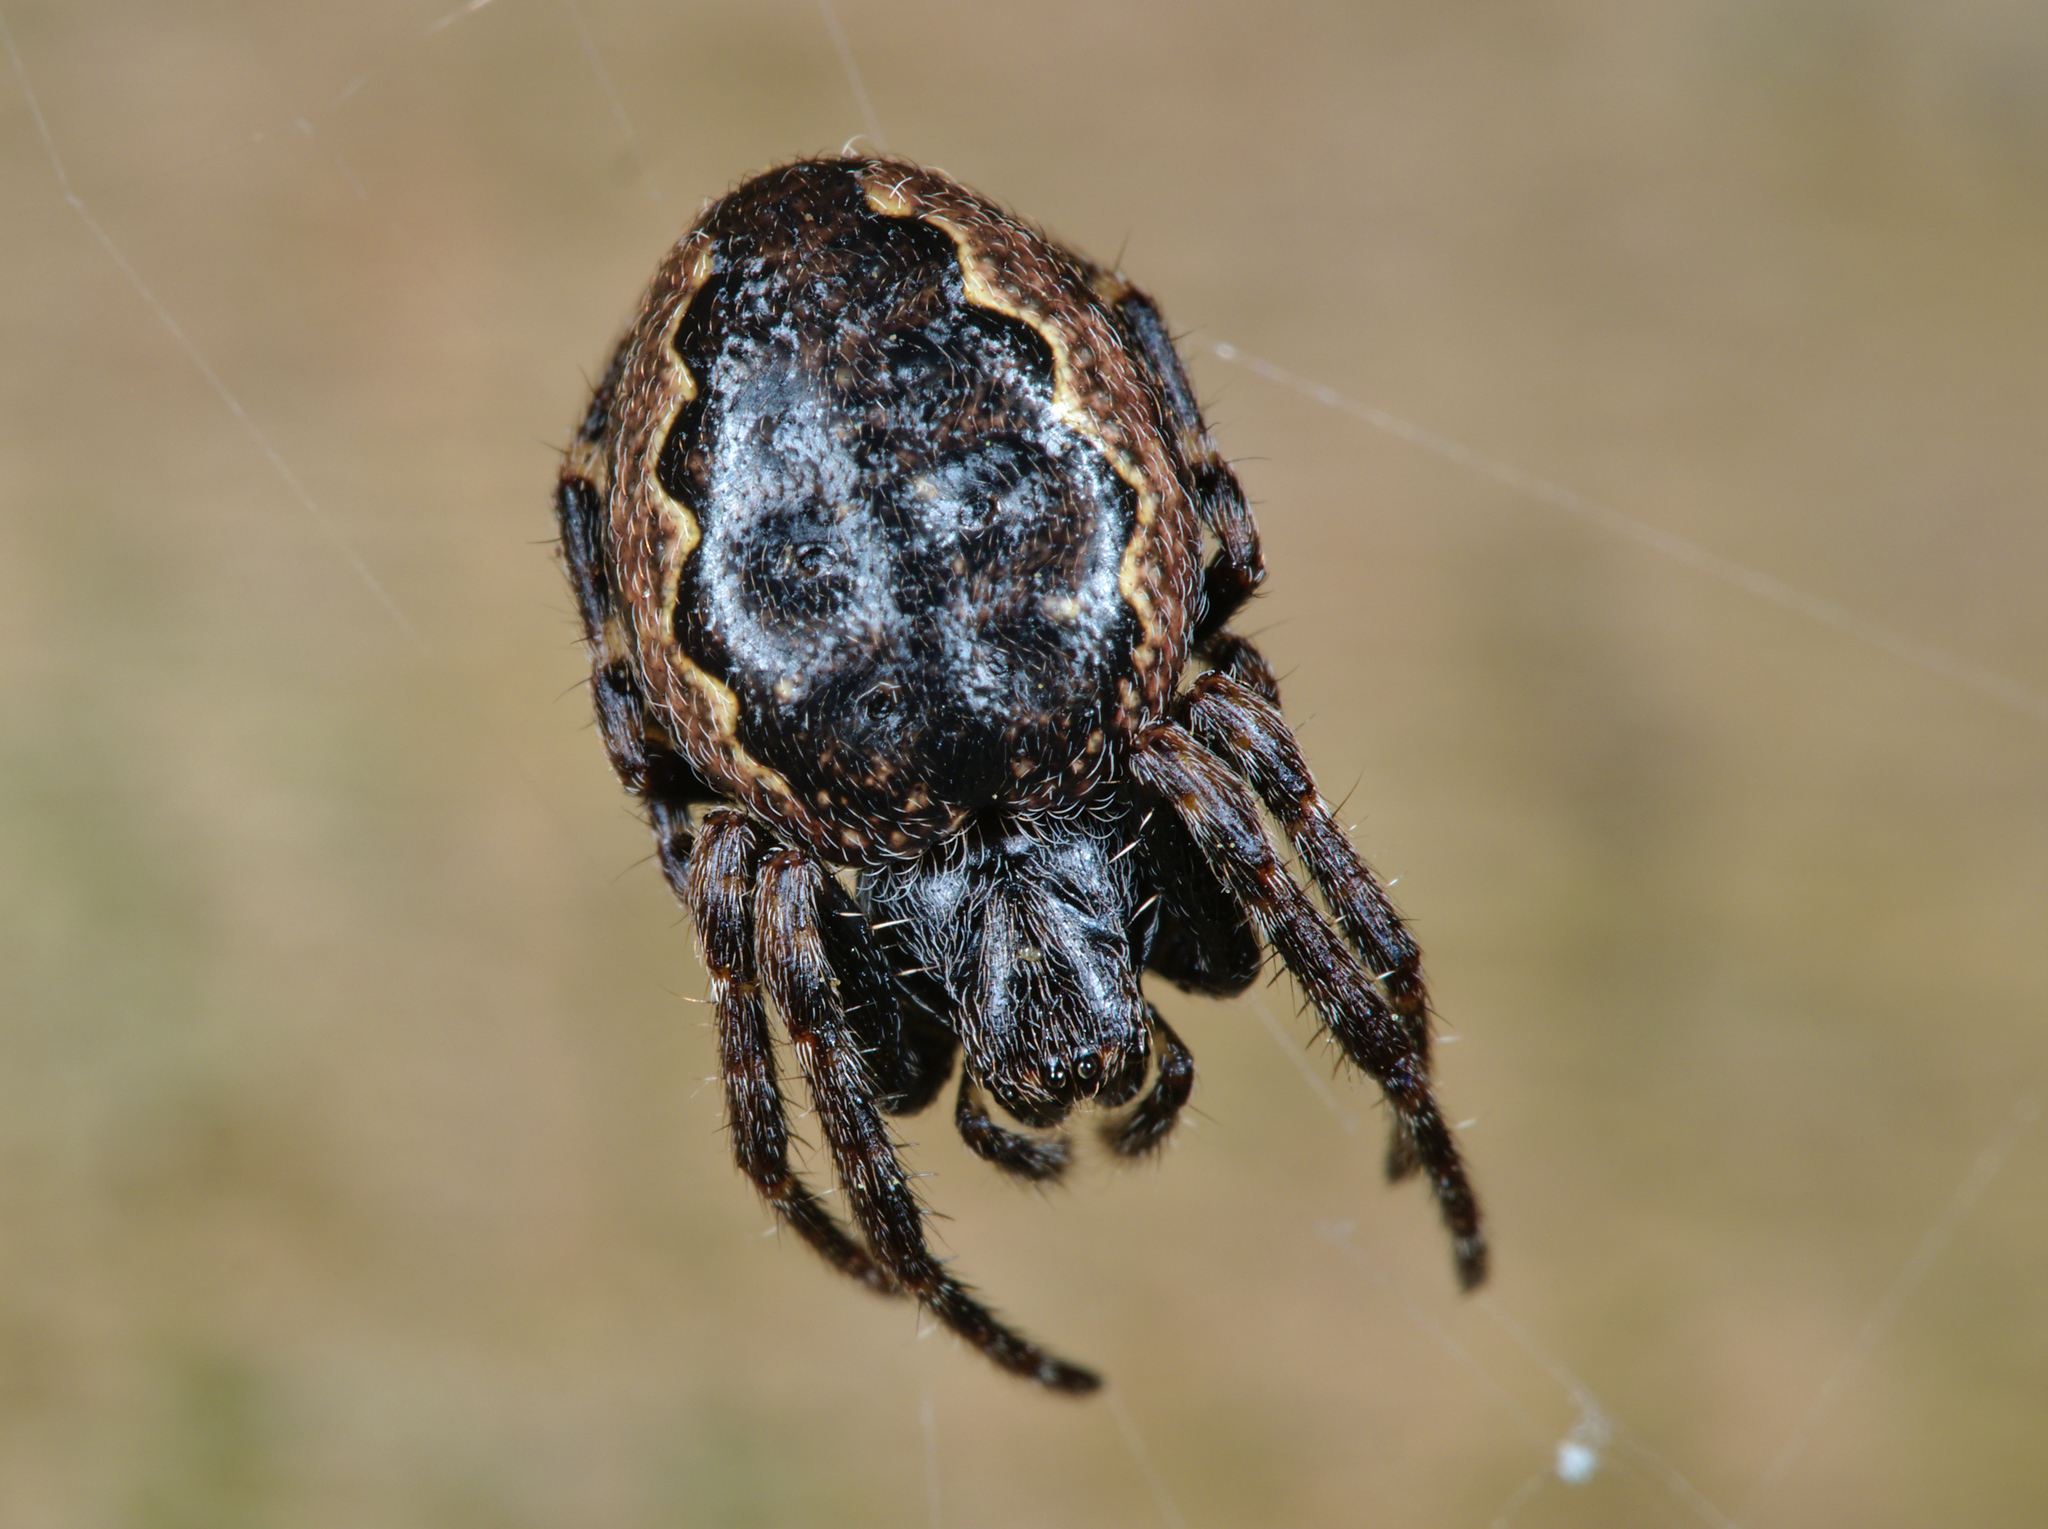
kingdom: Animalia
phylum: Arthropoda
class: Arachnida
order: Araneae
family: Araneidae
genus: Nuctenea
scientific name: Nuctenea umbratica
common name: Toad spider
